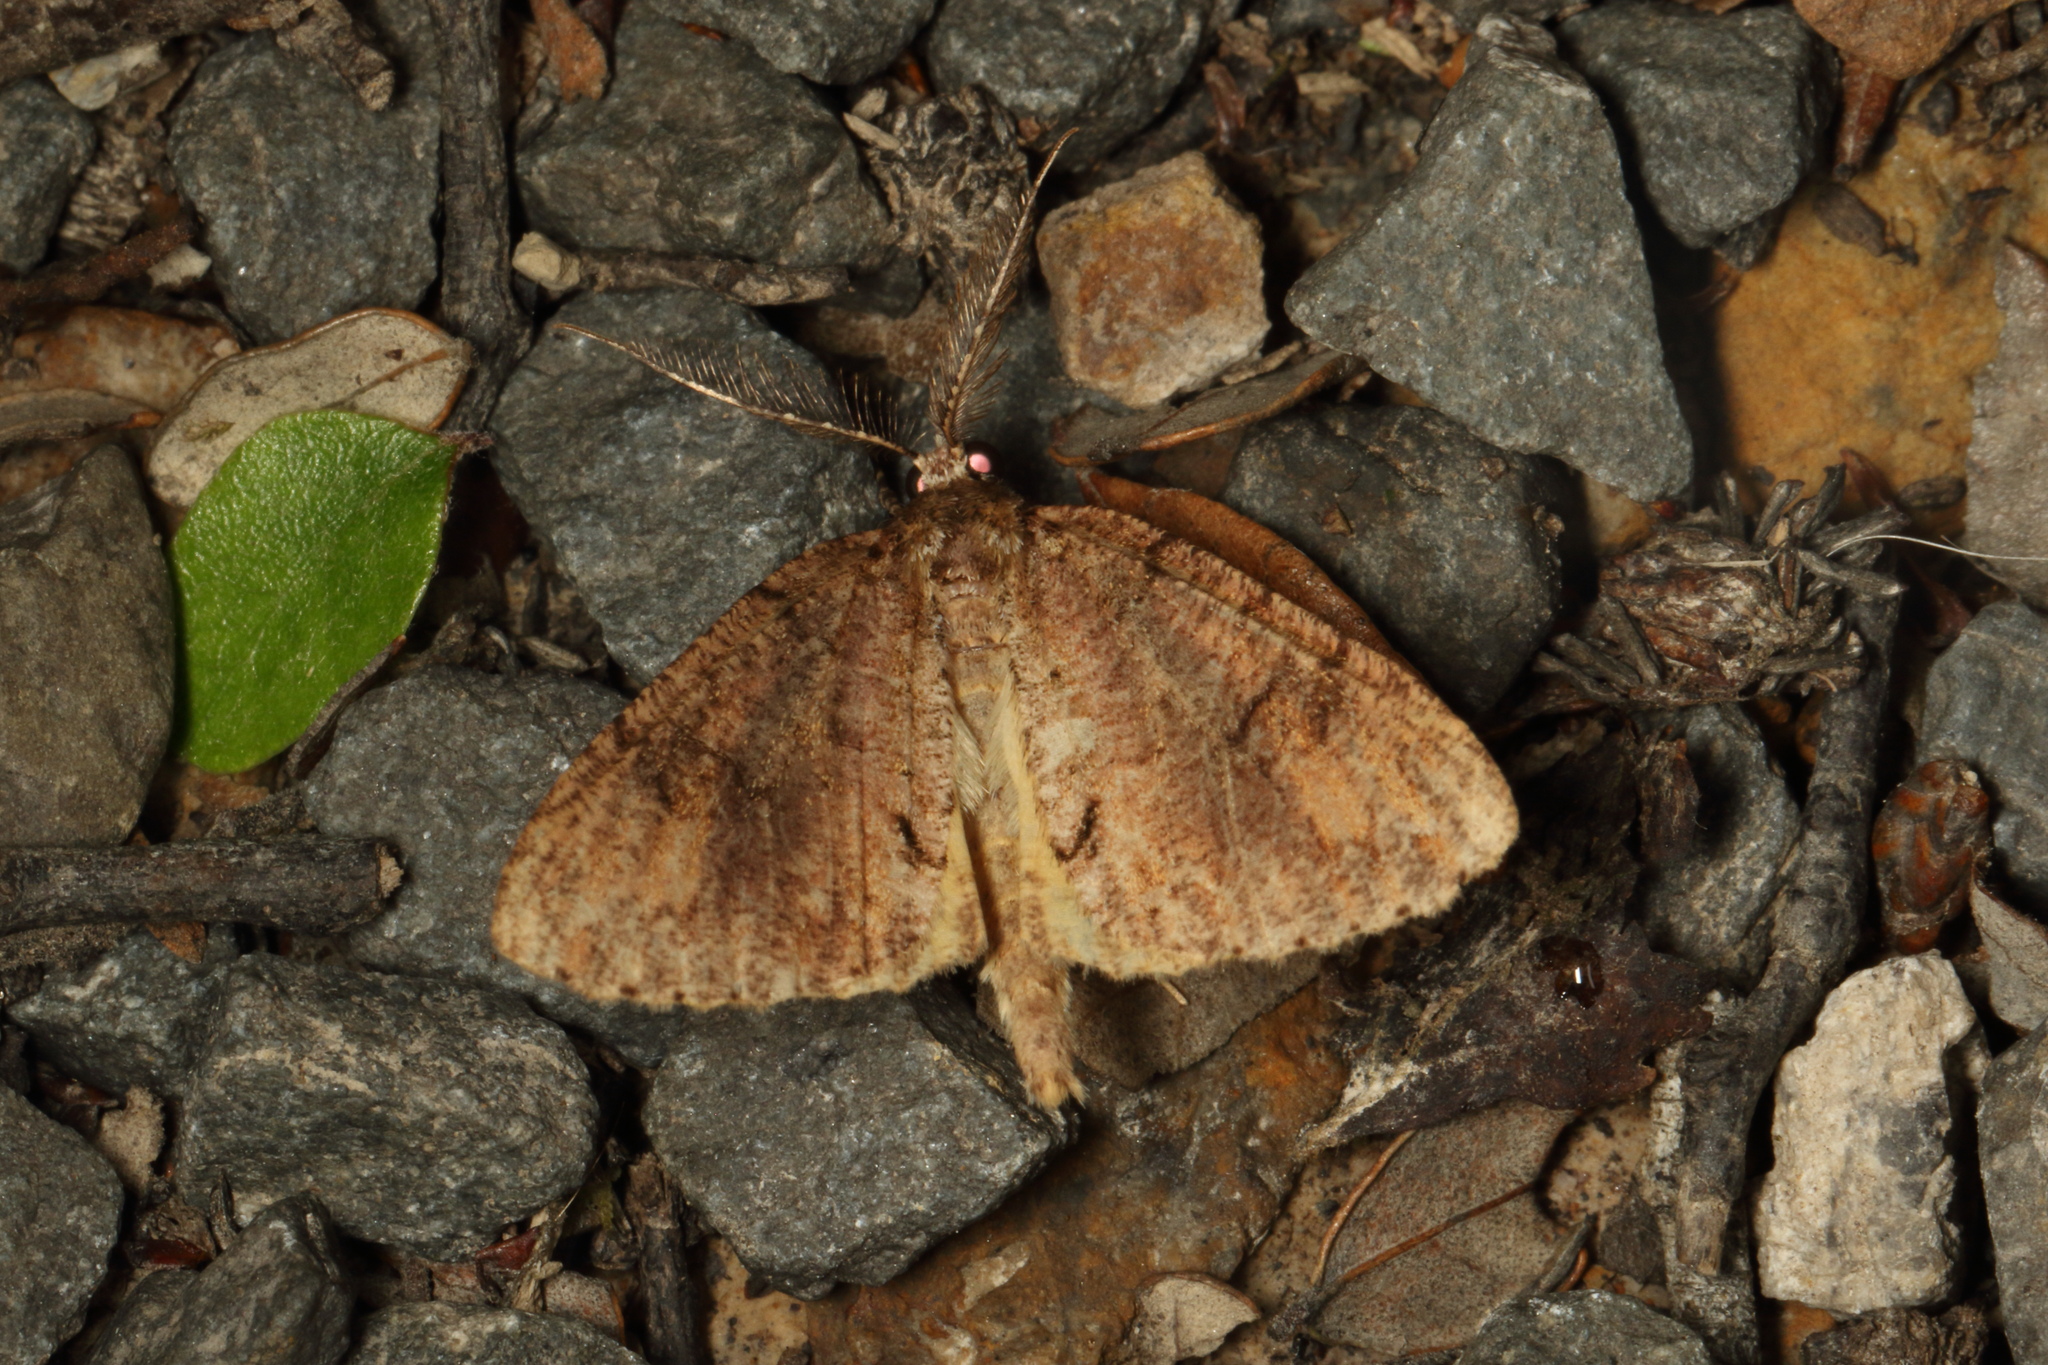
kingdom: Animalia
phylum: Arthropoda
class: Insecta
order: Lepidoptera
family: Geometridae
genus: Pseudocoremia
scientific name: Pseudocoremia suavis
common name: Common forest looper
